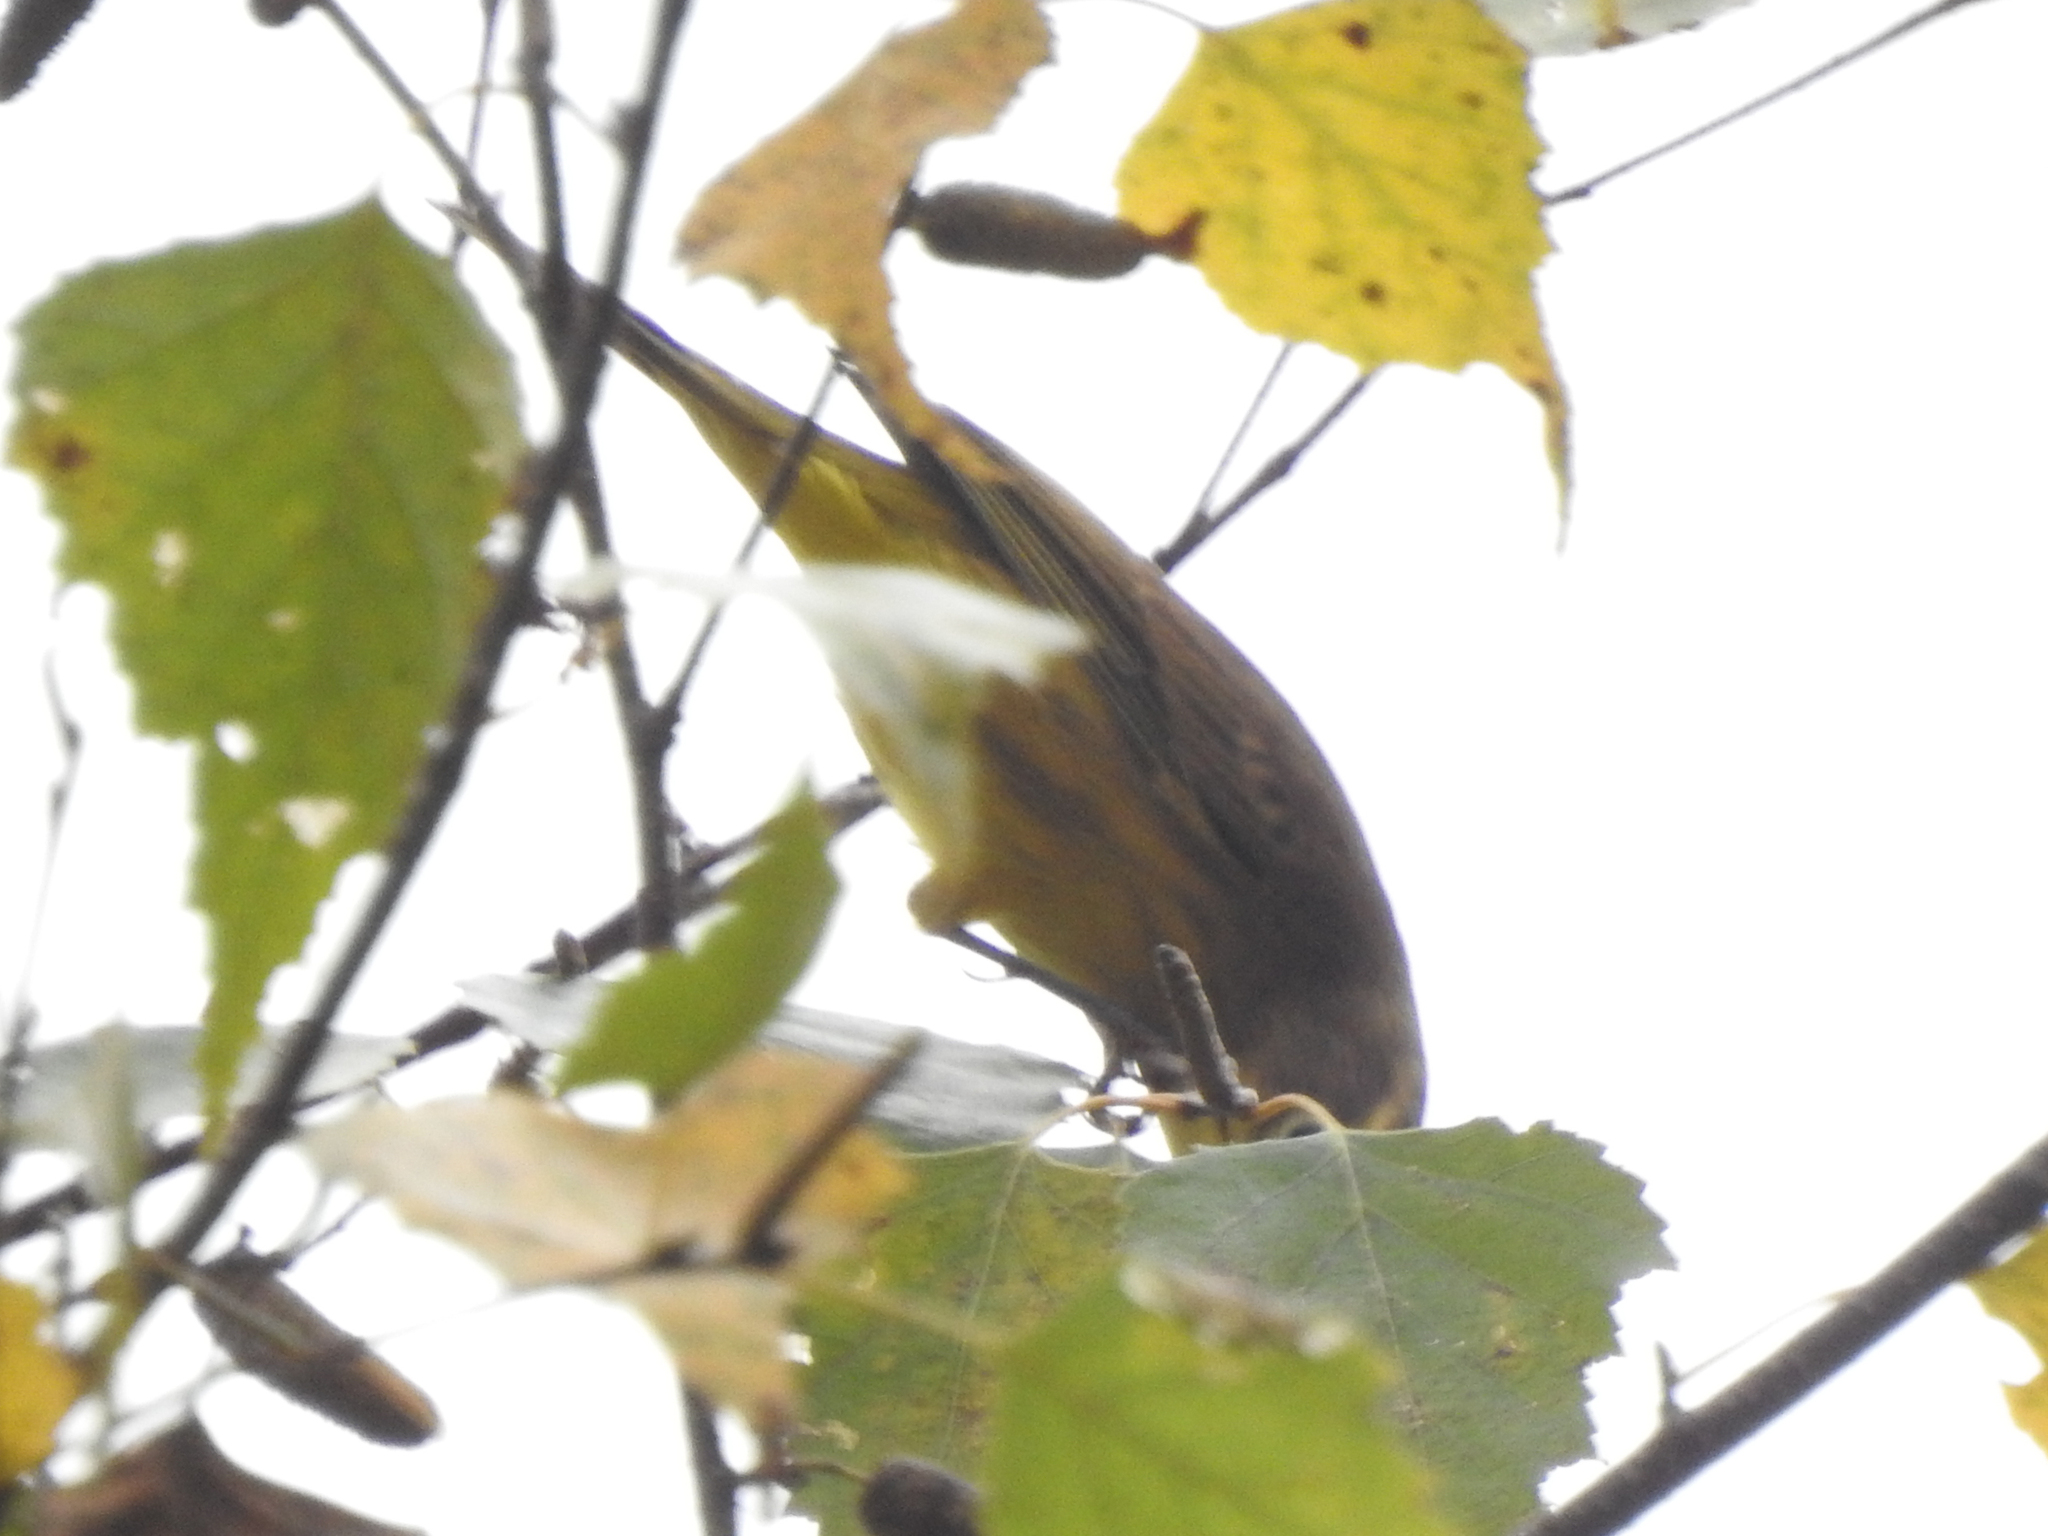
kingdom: Animalia
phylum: Chordata
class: Aves
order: Passeriformes
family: Parulidae
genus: Setophaga
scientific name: Setophaga palmarum
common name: Palm warbler
